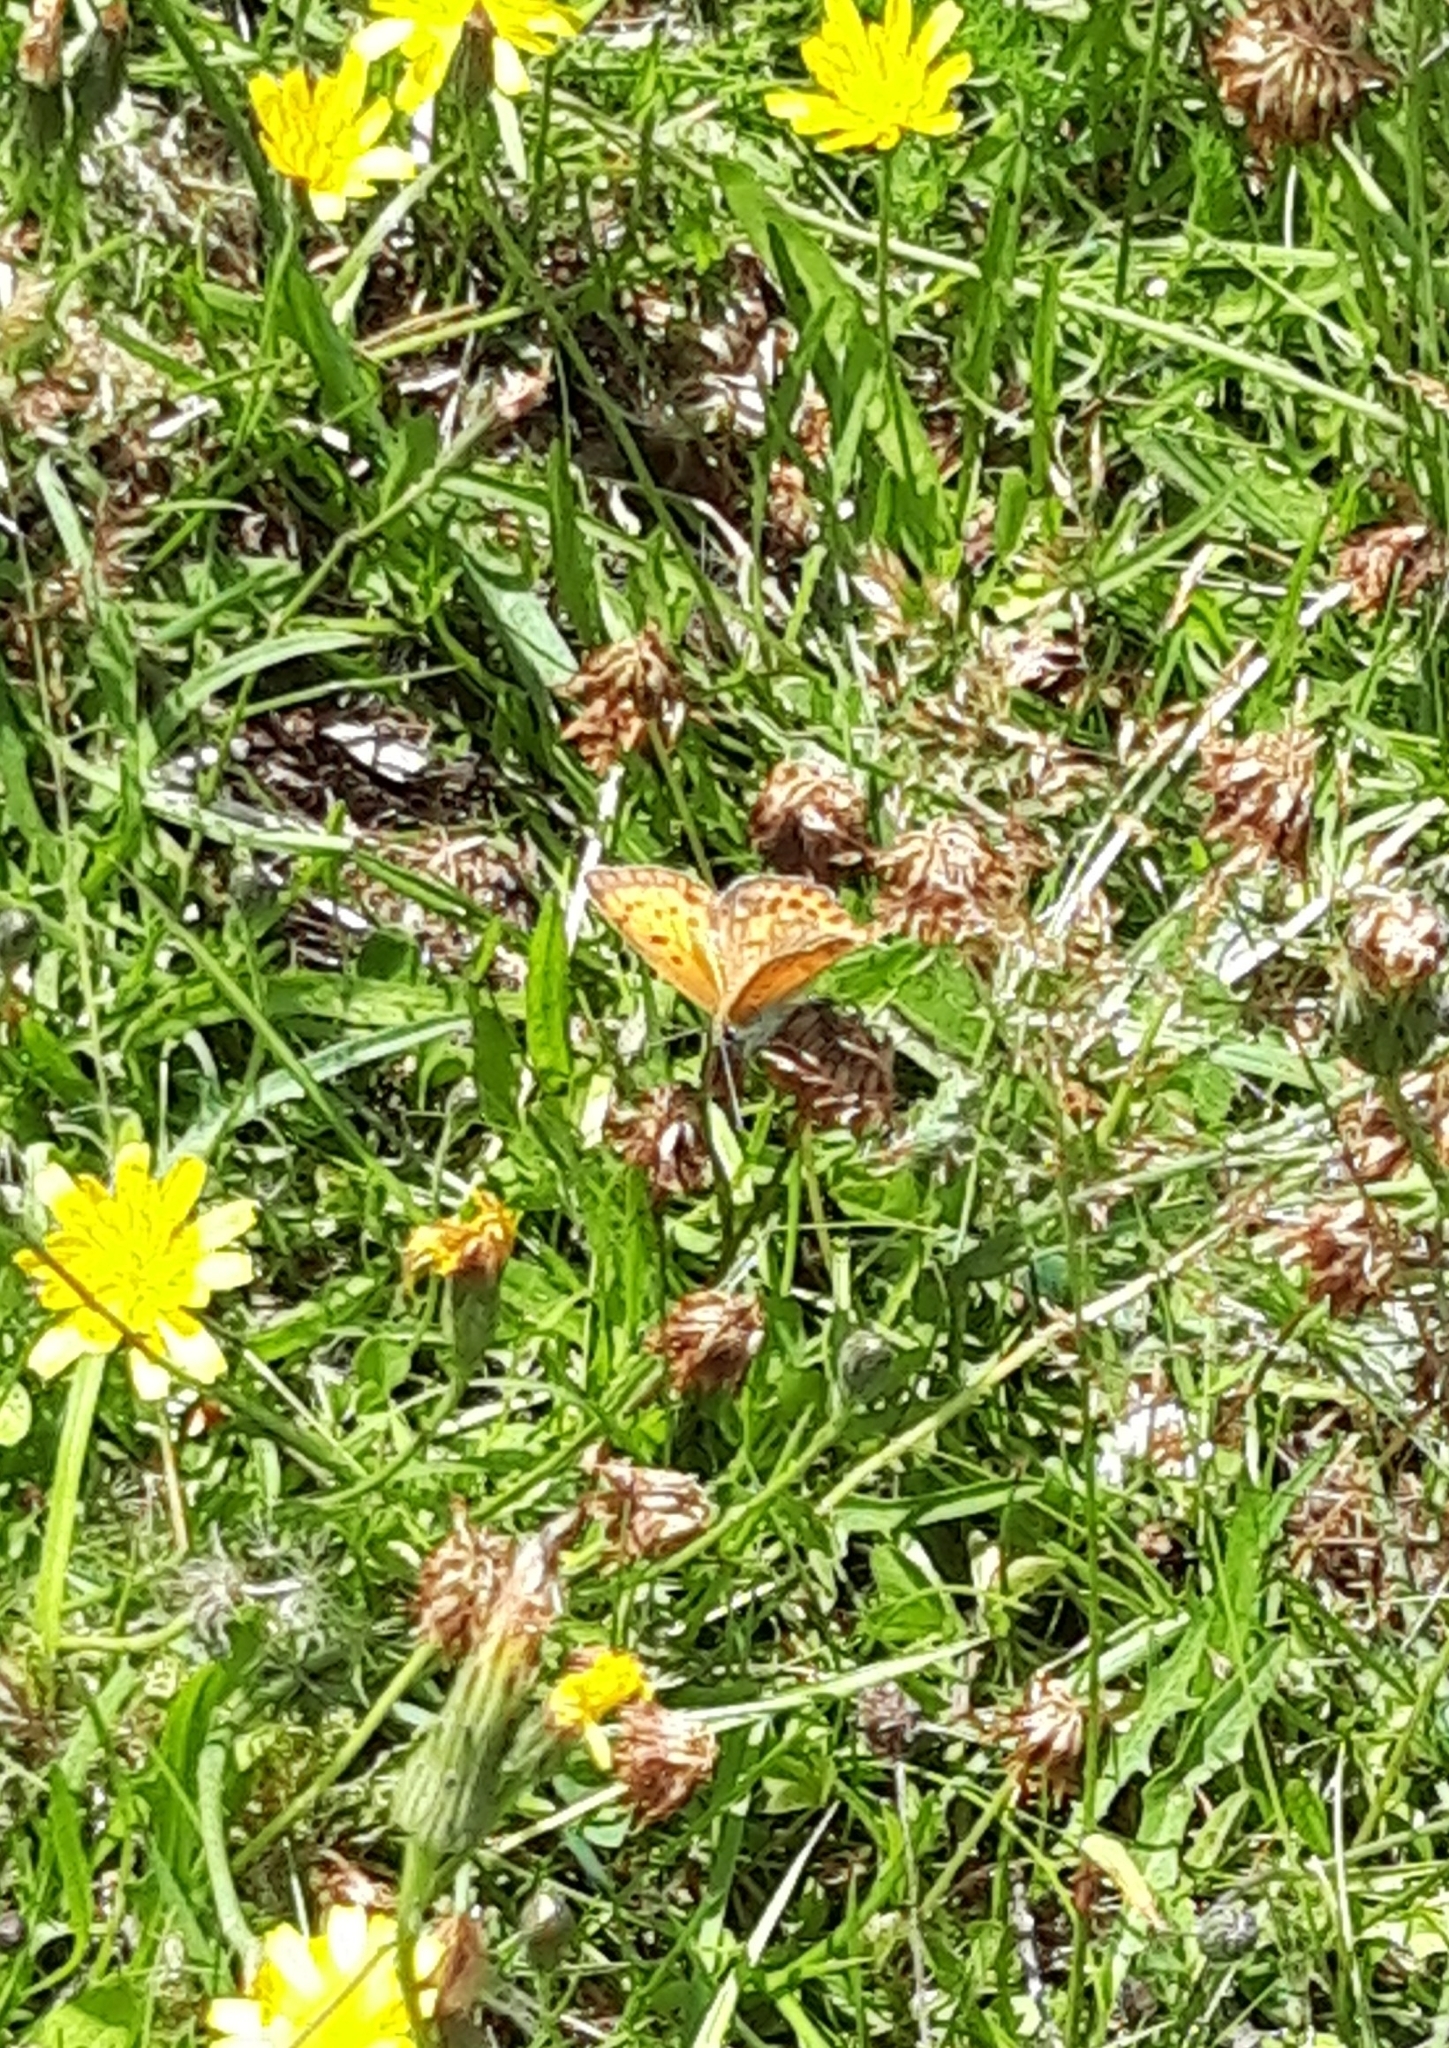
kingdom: Animalia
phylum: Arthropoda
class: Insecta
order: Lepidoptera
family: Lycaenidae
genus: Lycaena
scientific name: Lycaena virgaureae
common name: Scarce copper
